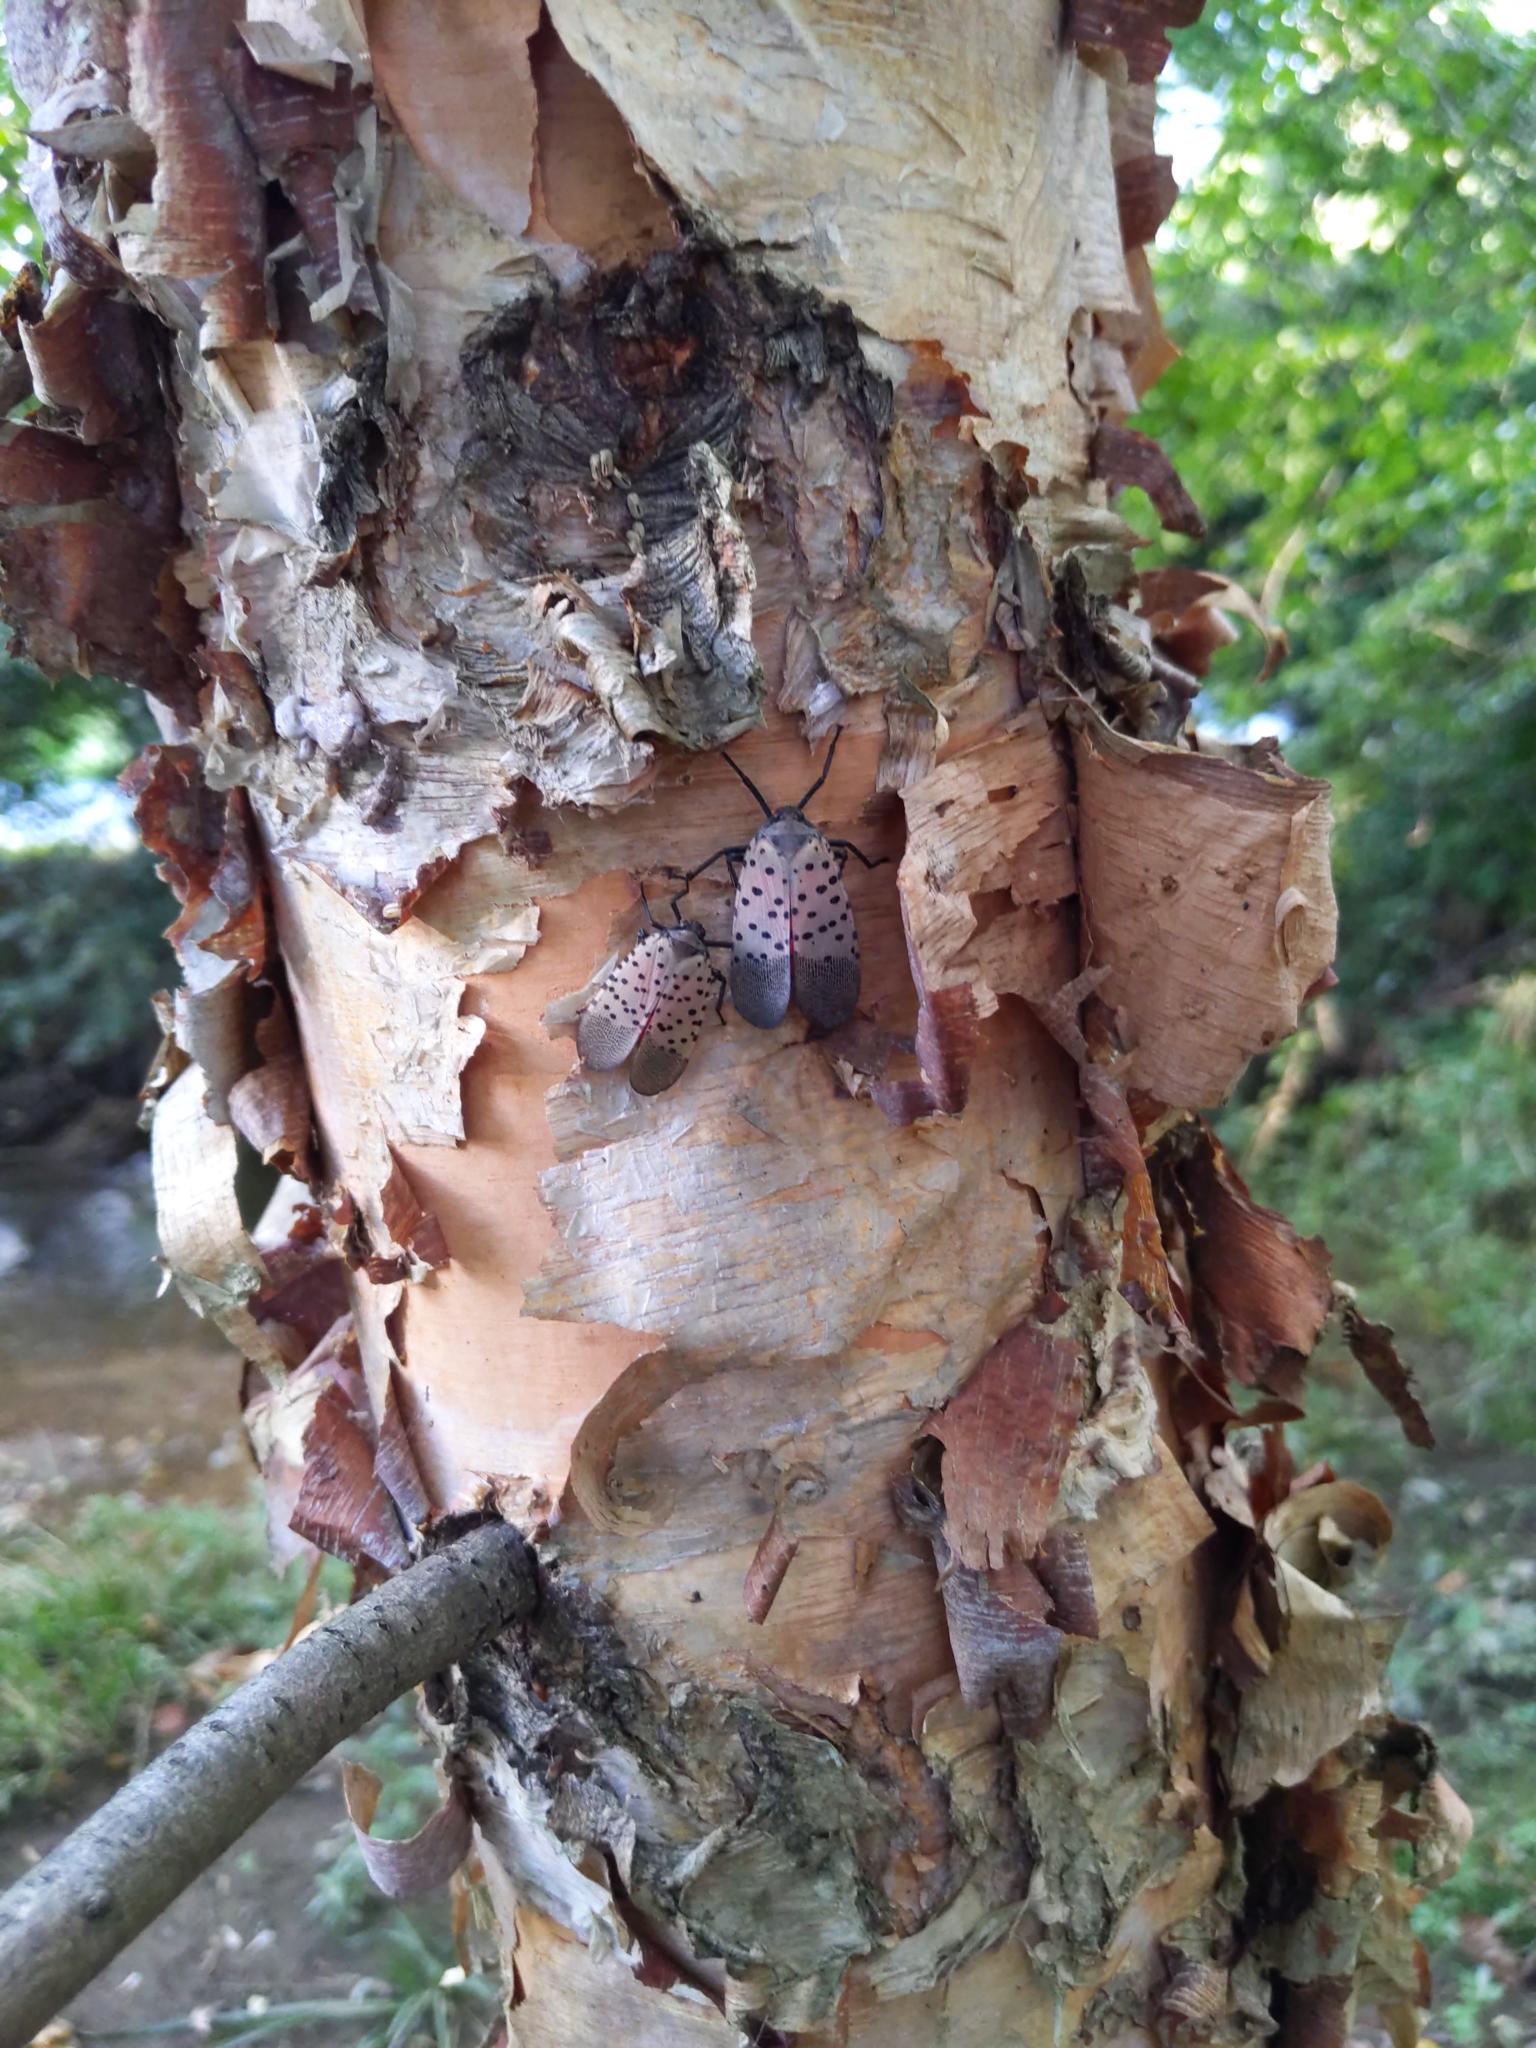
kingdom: Animalia
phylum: Arthropoda
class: Insecta
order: Hemiptera
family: Fulgoridae
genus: Lycorma
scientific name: Lycorma delicatula
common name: Spotted lanternfly
